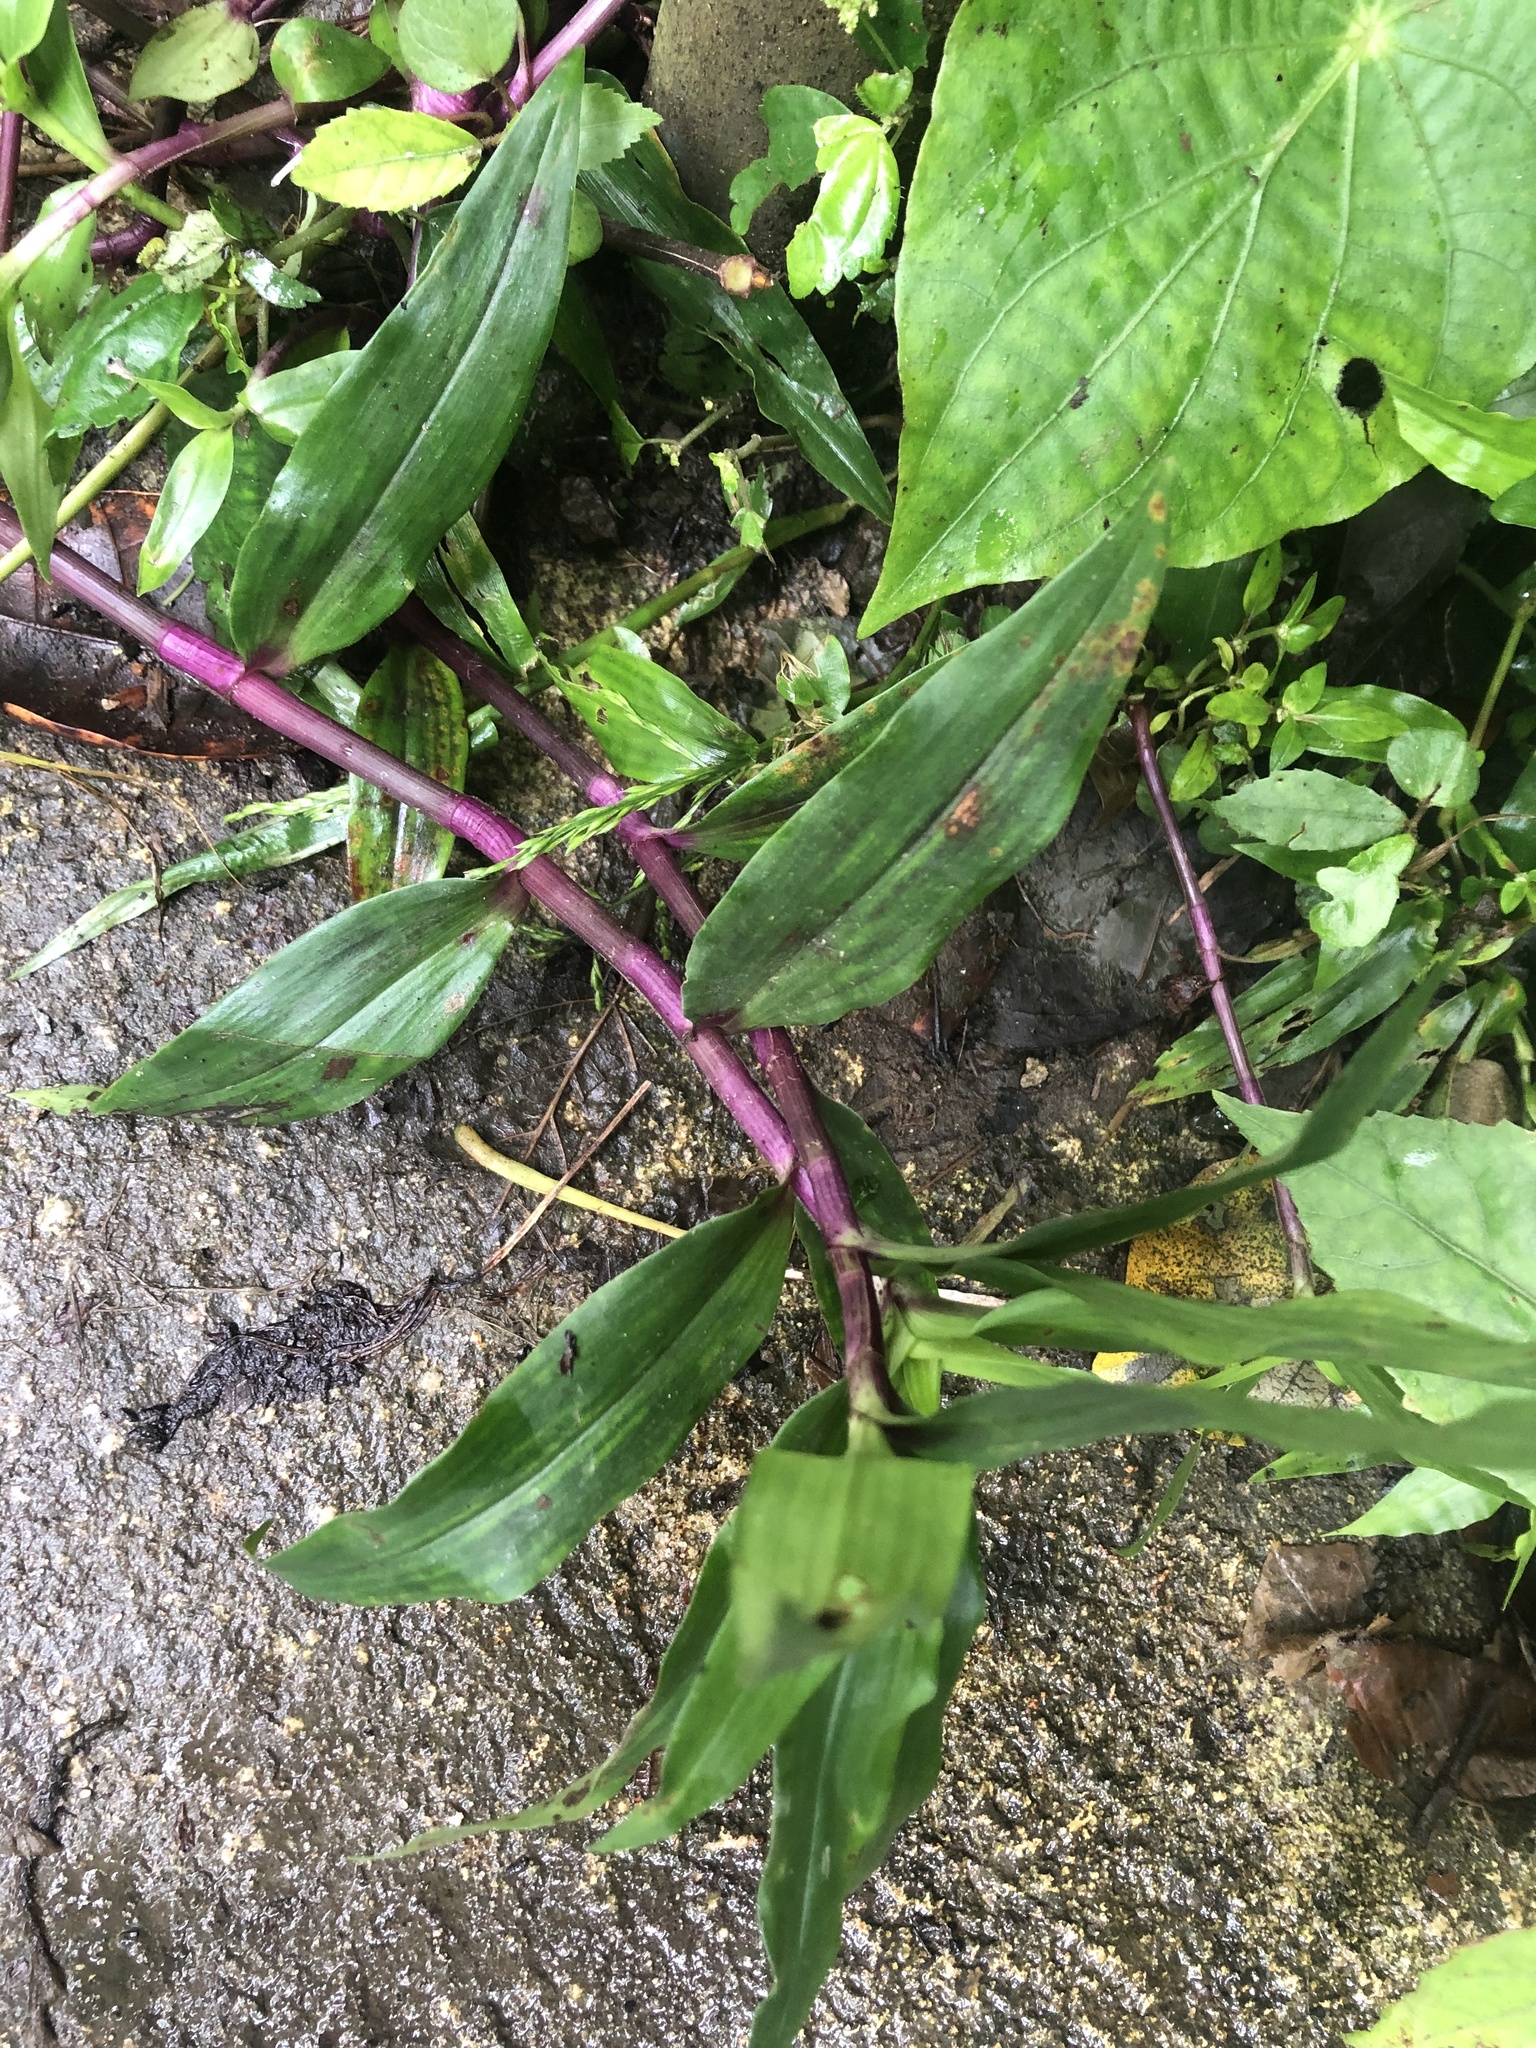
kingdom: Plantae
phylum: Tracheophyta
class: Liliopsida
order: Commelinales
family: Commelinaceae
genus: Callisia
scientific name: Callisia serrulata
